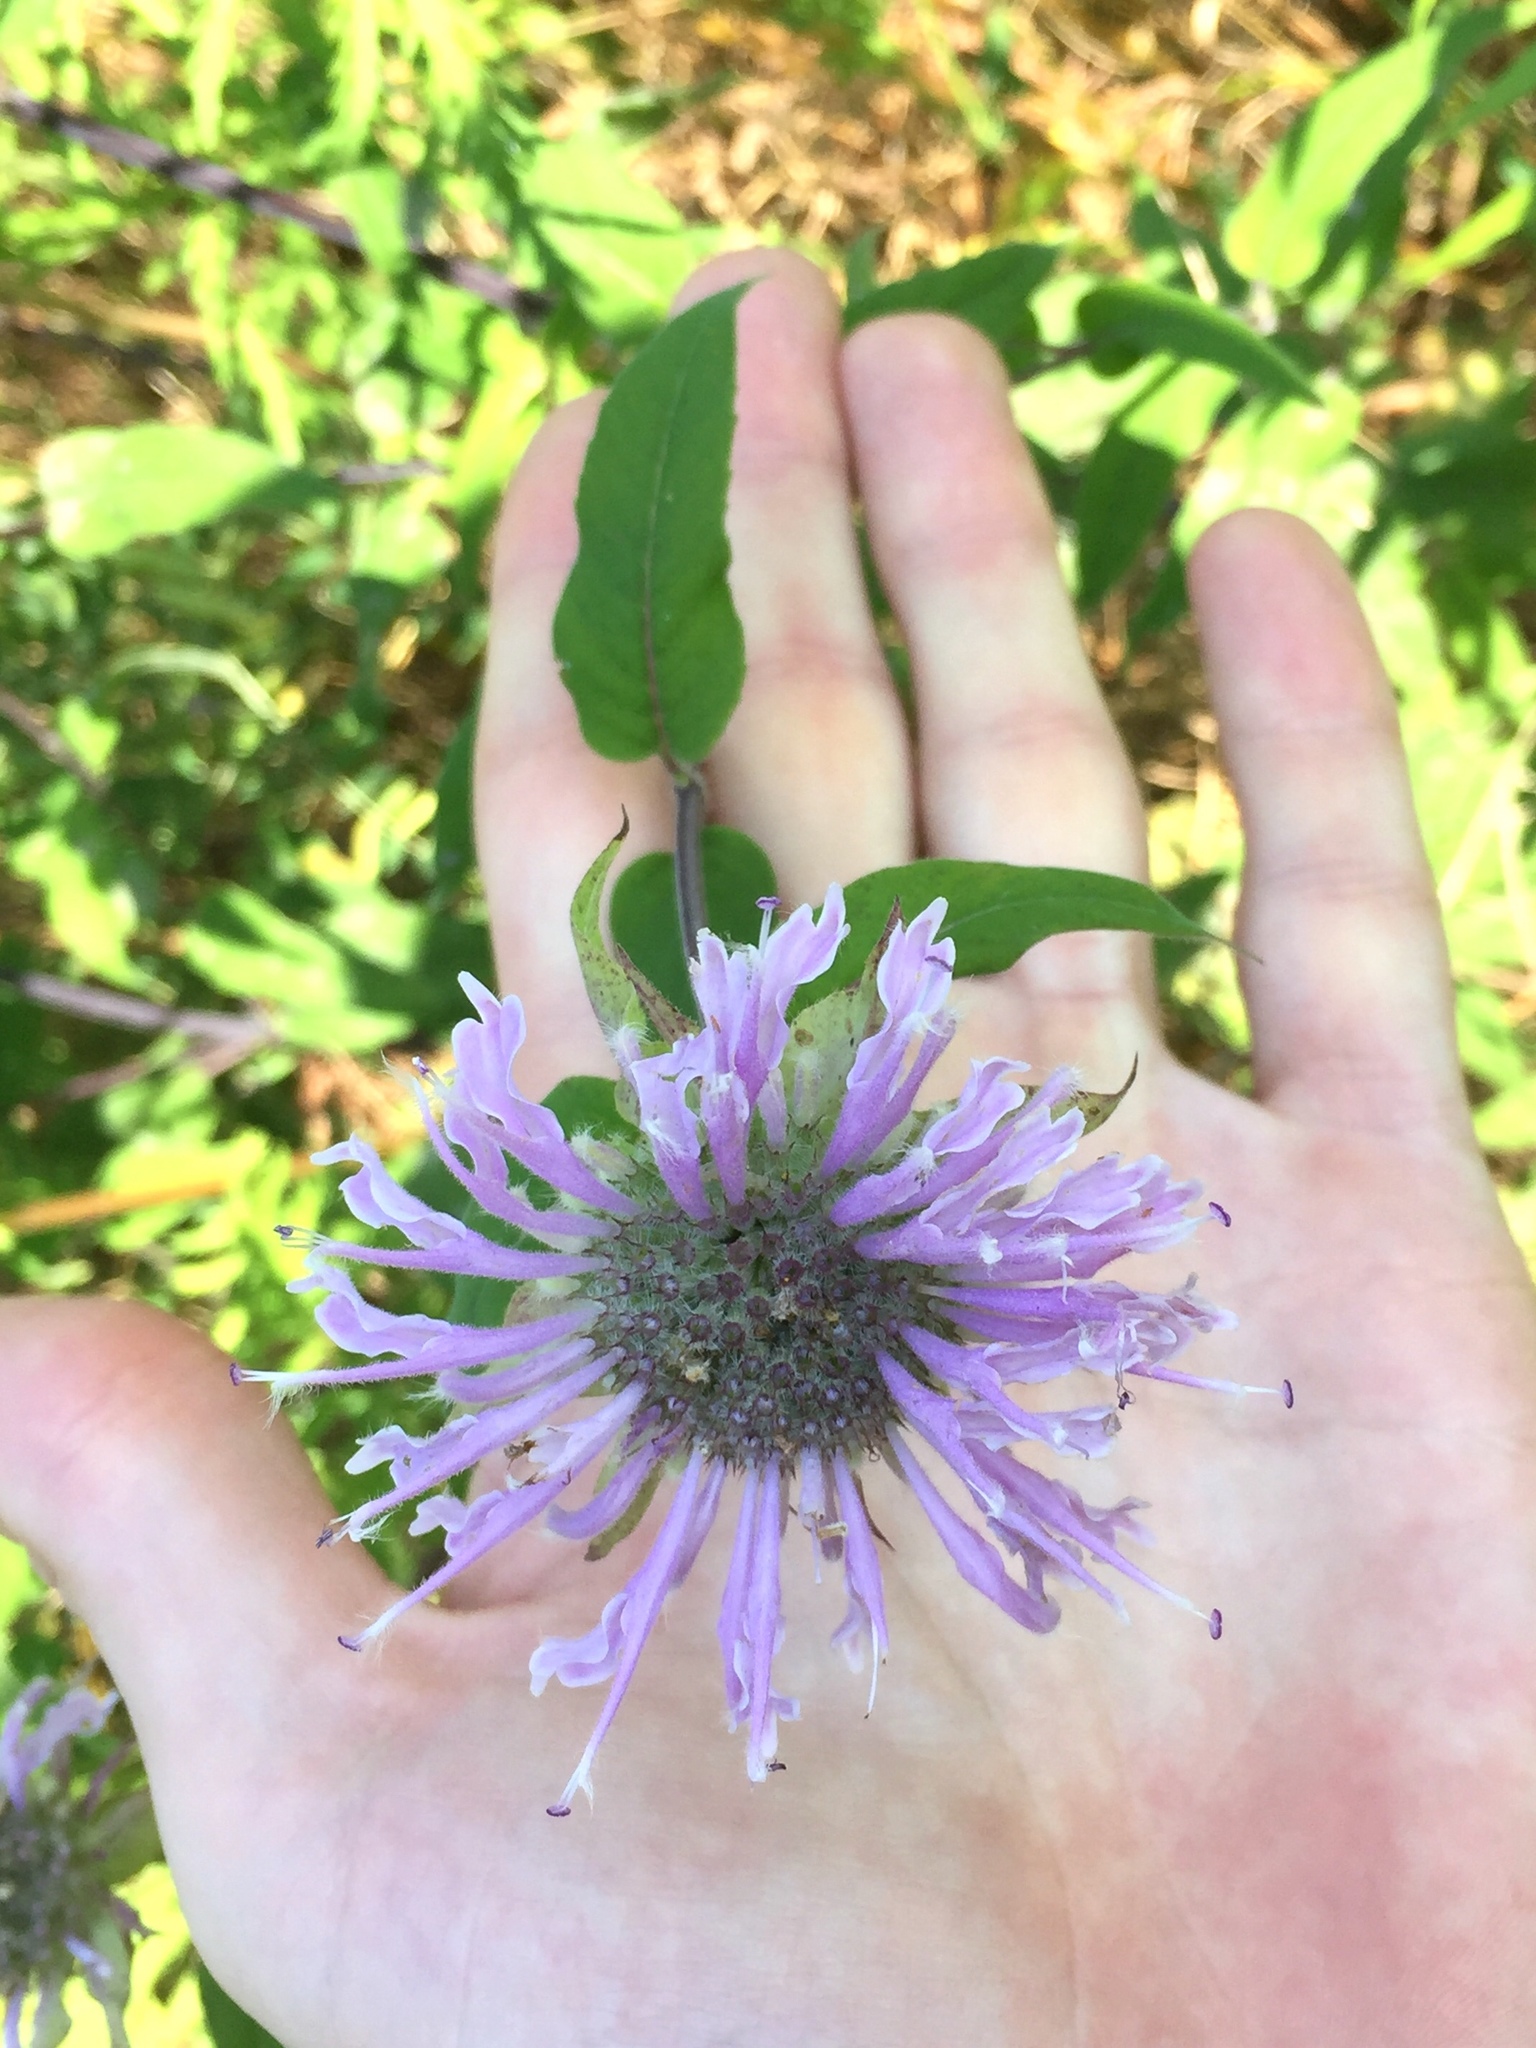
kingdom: Plantae
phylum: Tracheophyta
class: Magnoliopsida
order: Lamiales
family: Lamiaceae
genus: Monarda
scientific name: Monarda fistulosa
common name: Purple beebalm
